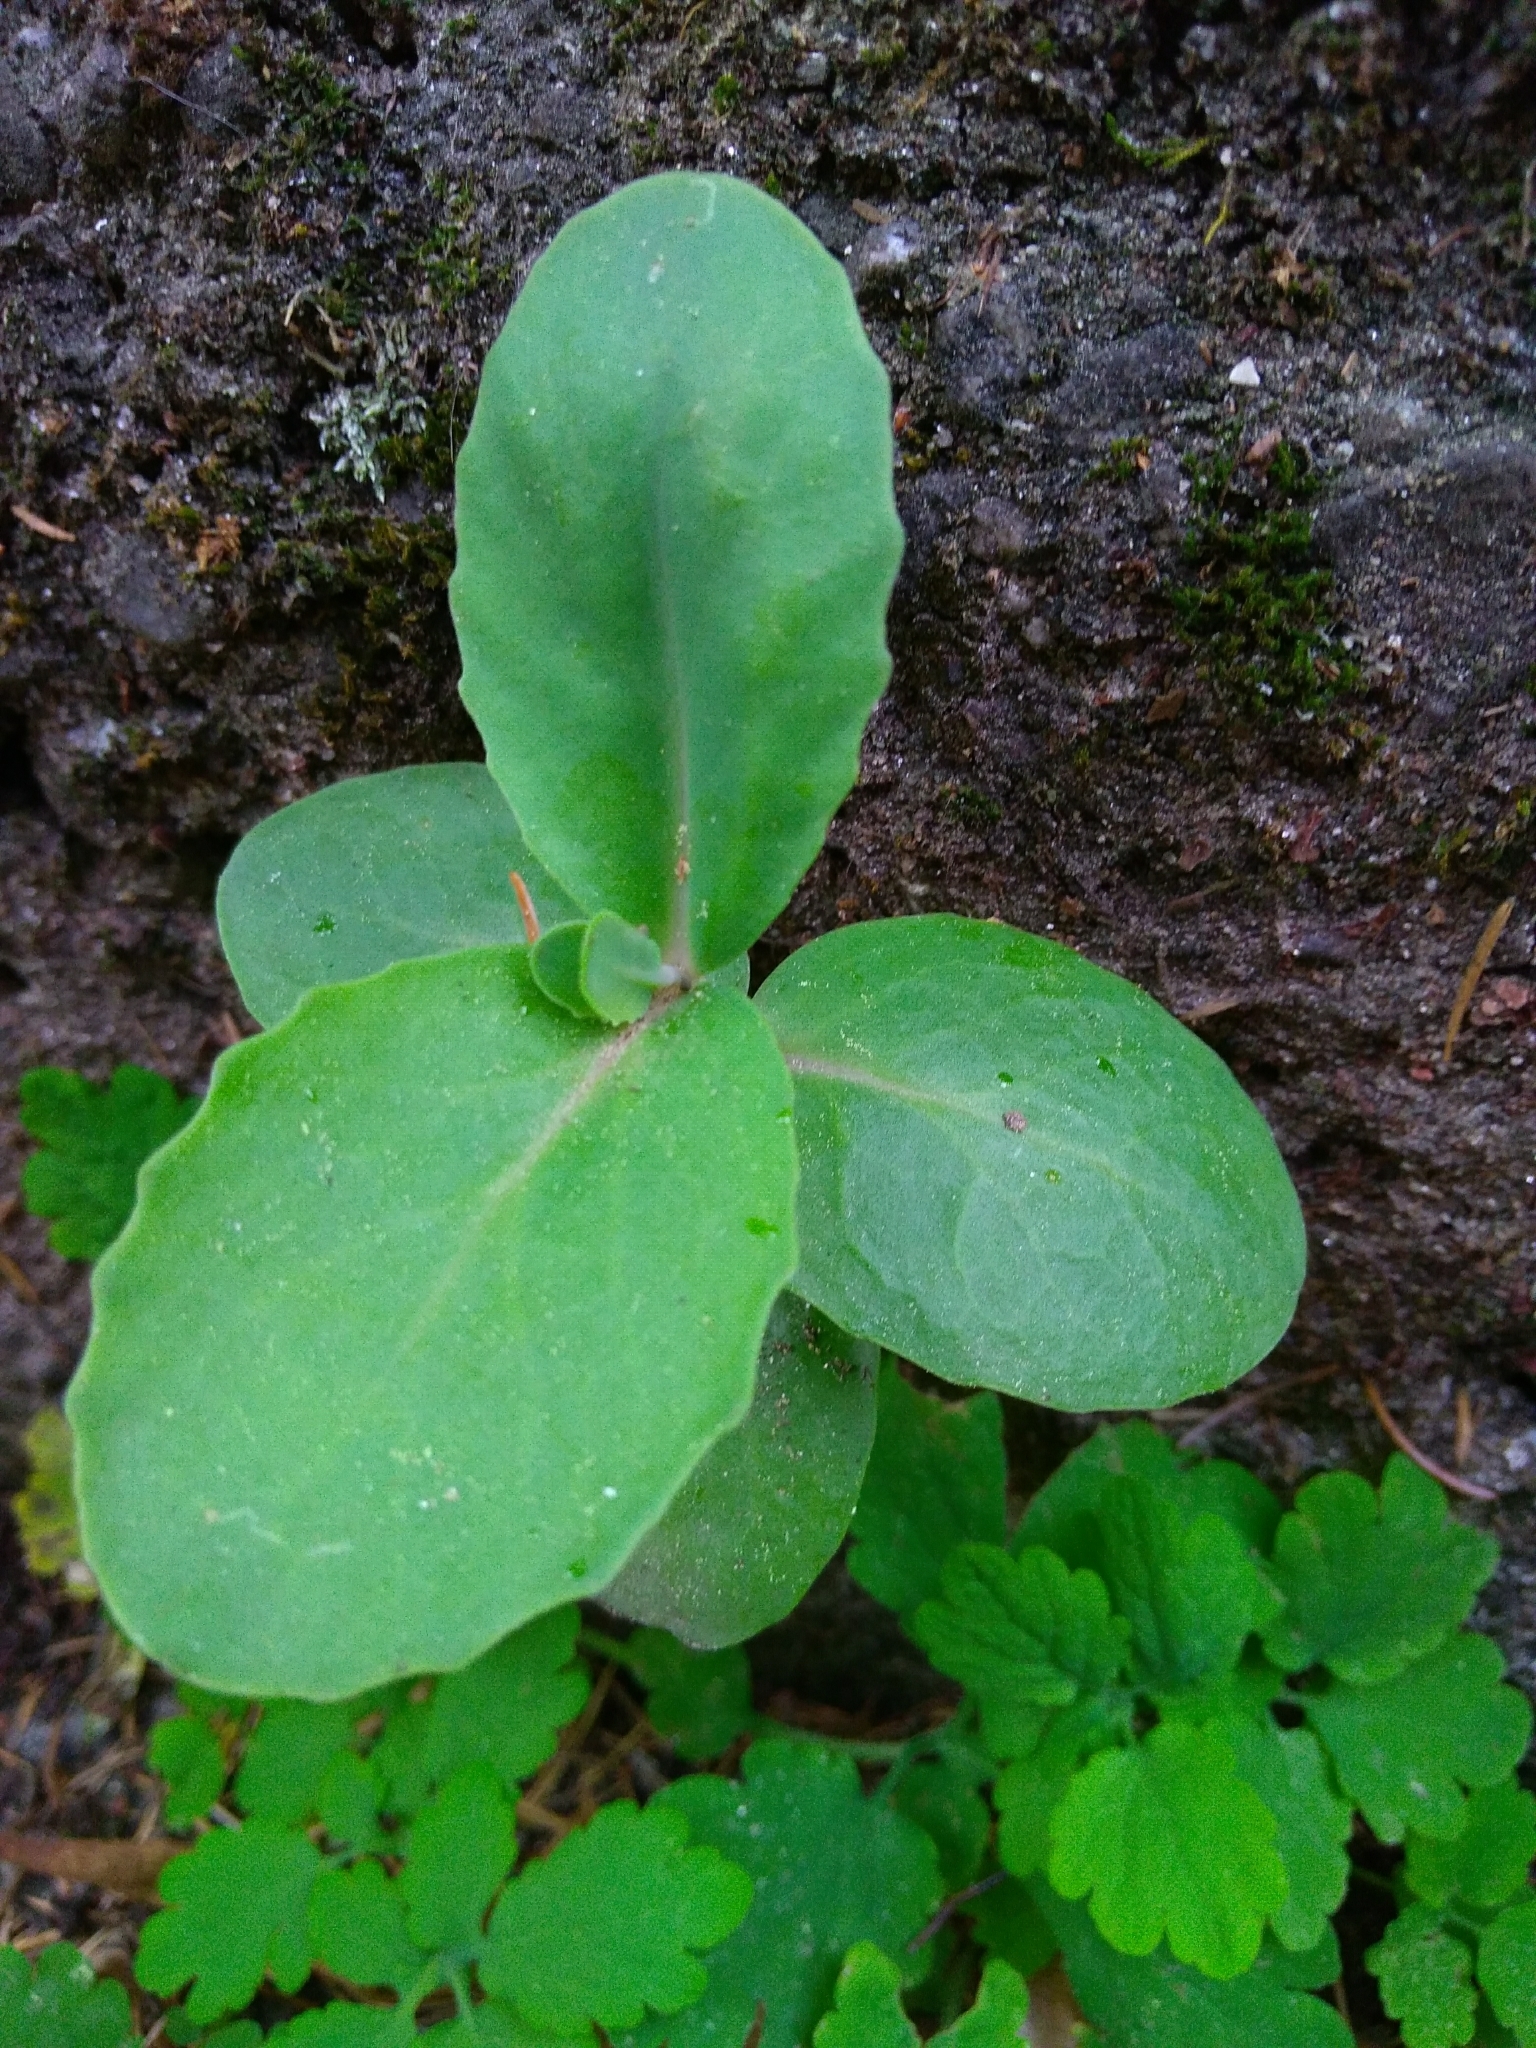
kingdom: Plantae
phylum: Tracheophyta
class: Magnoliopsida
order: Saxifragales
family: Crassulaceae
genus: Hylotelephium
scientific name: Hylotelephium maximum
